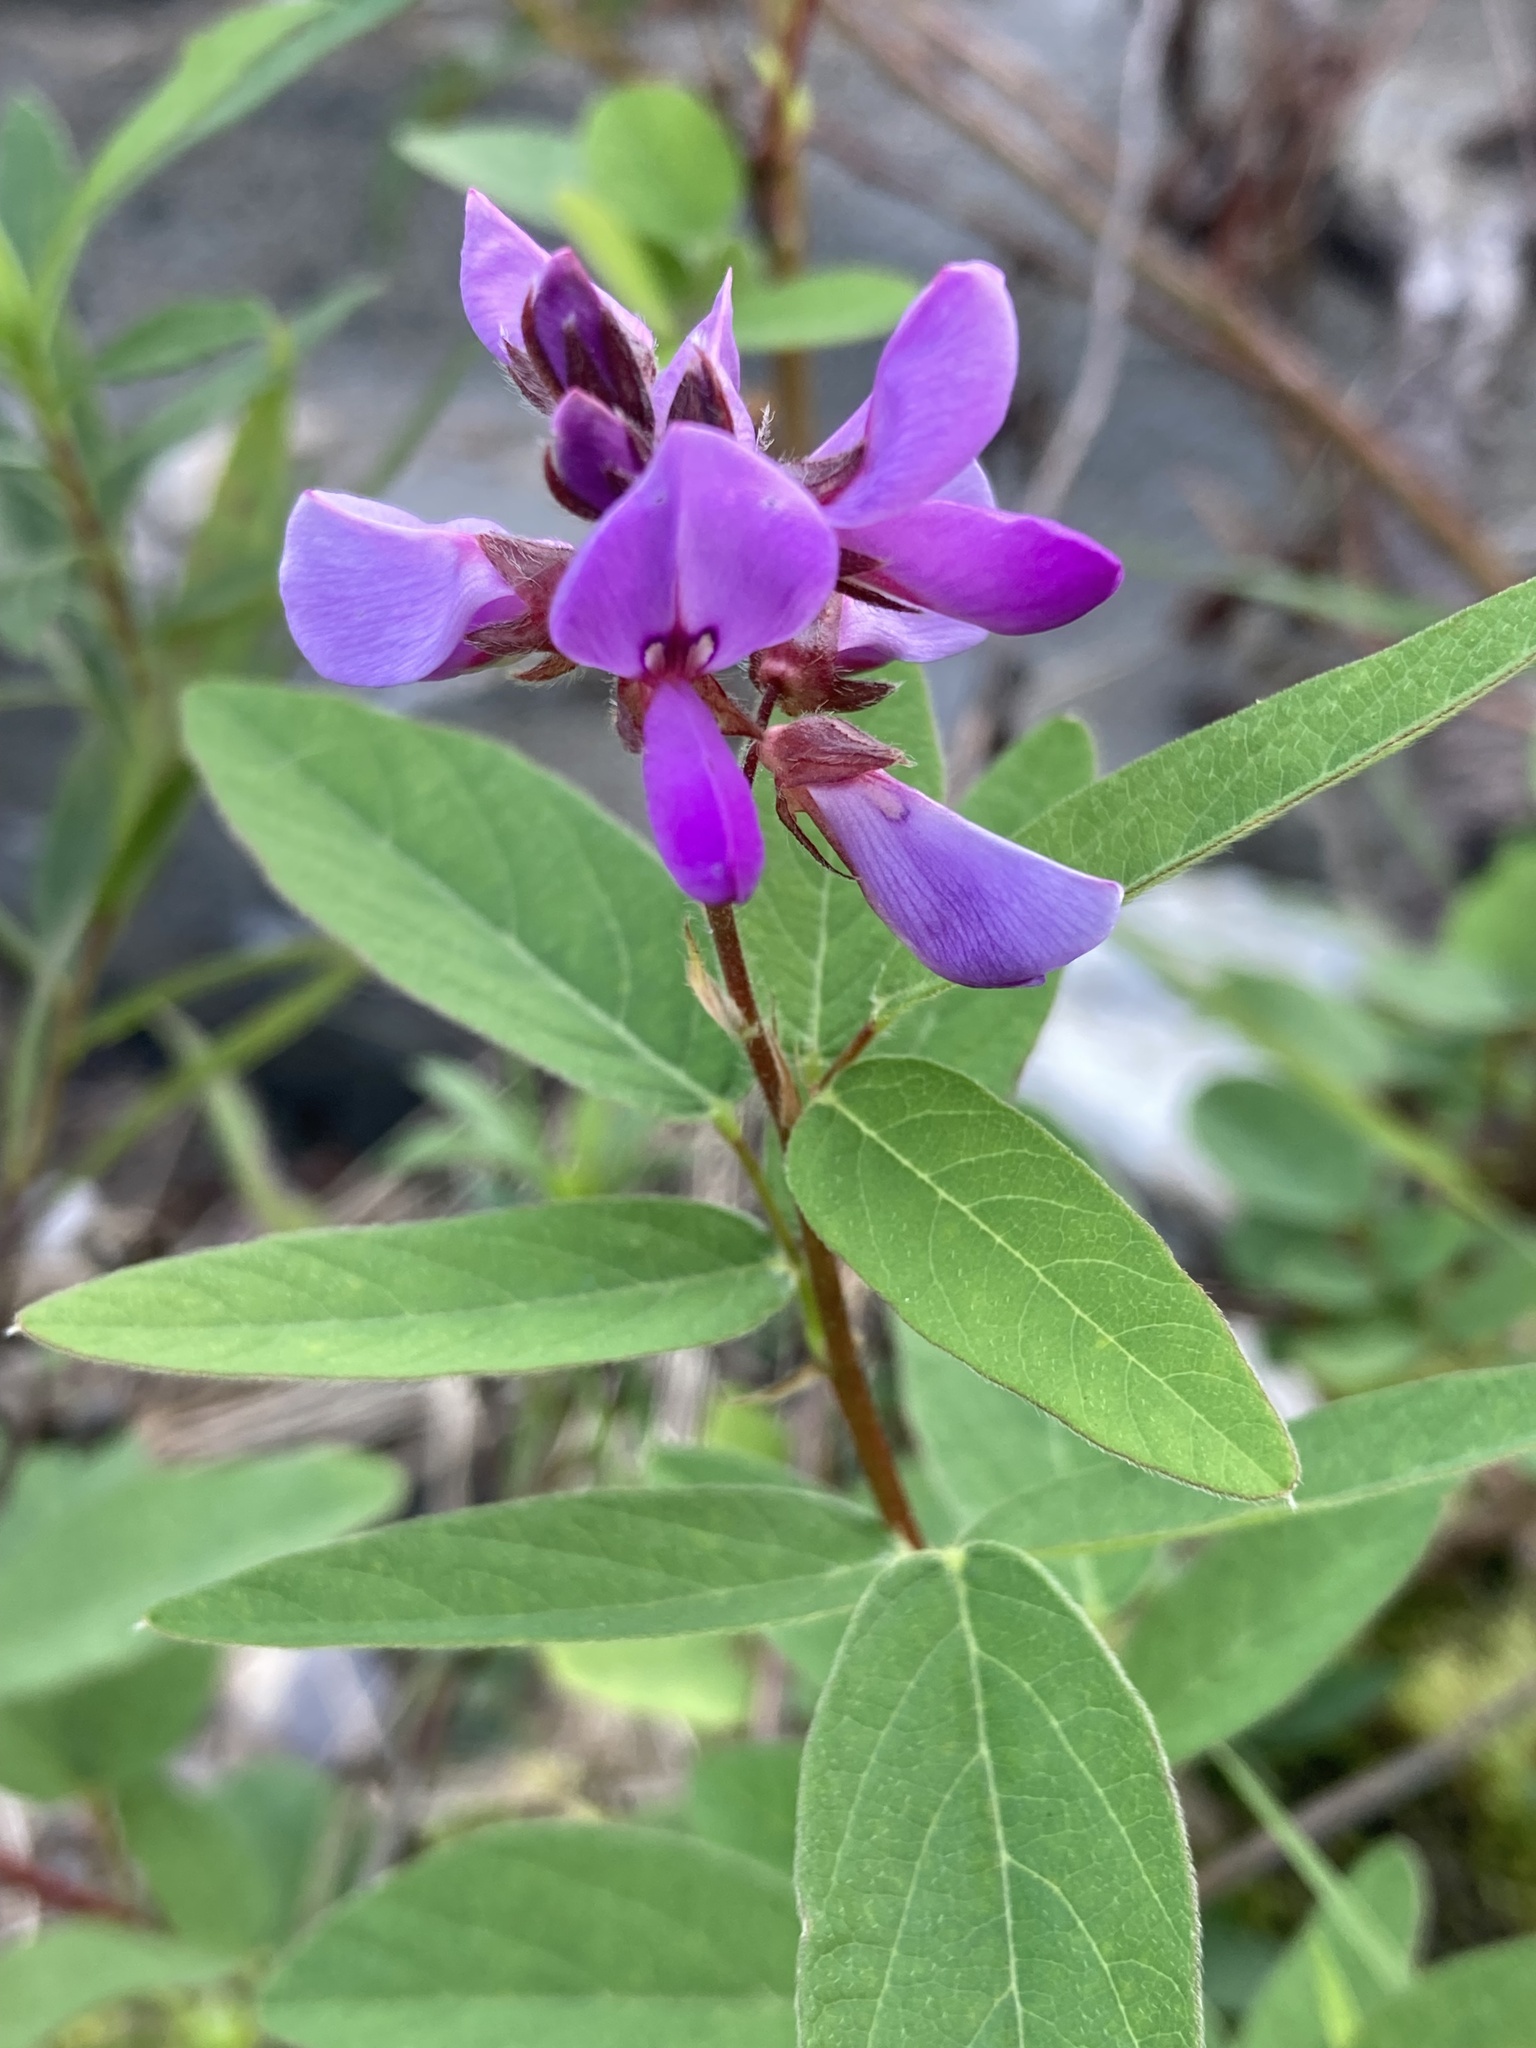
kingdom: Plantae
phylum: Tracheophyta
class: Magnoliopsida
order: Fabales
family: Fabaceae
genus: Desmodium
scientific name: Desmodium canadense
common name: Canada tick-trefoil
